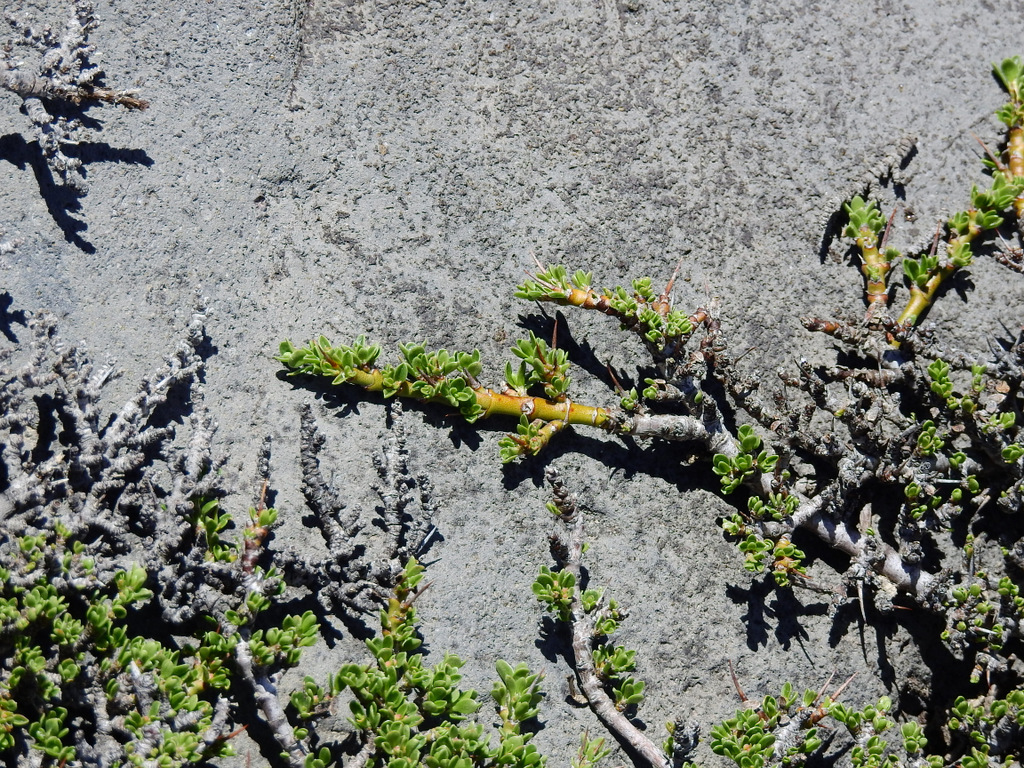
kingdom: Plantae
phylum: Tracheophyta
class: Magnoliopsida
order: Rosales
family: Rhamnaceae
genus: Discaria
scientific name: Discaria nana
